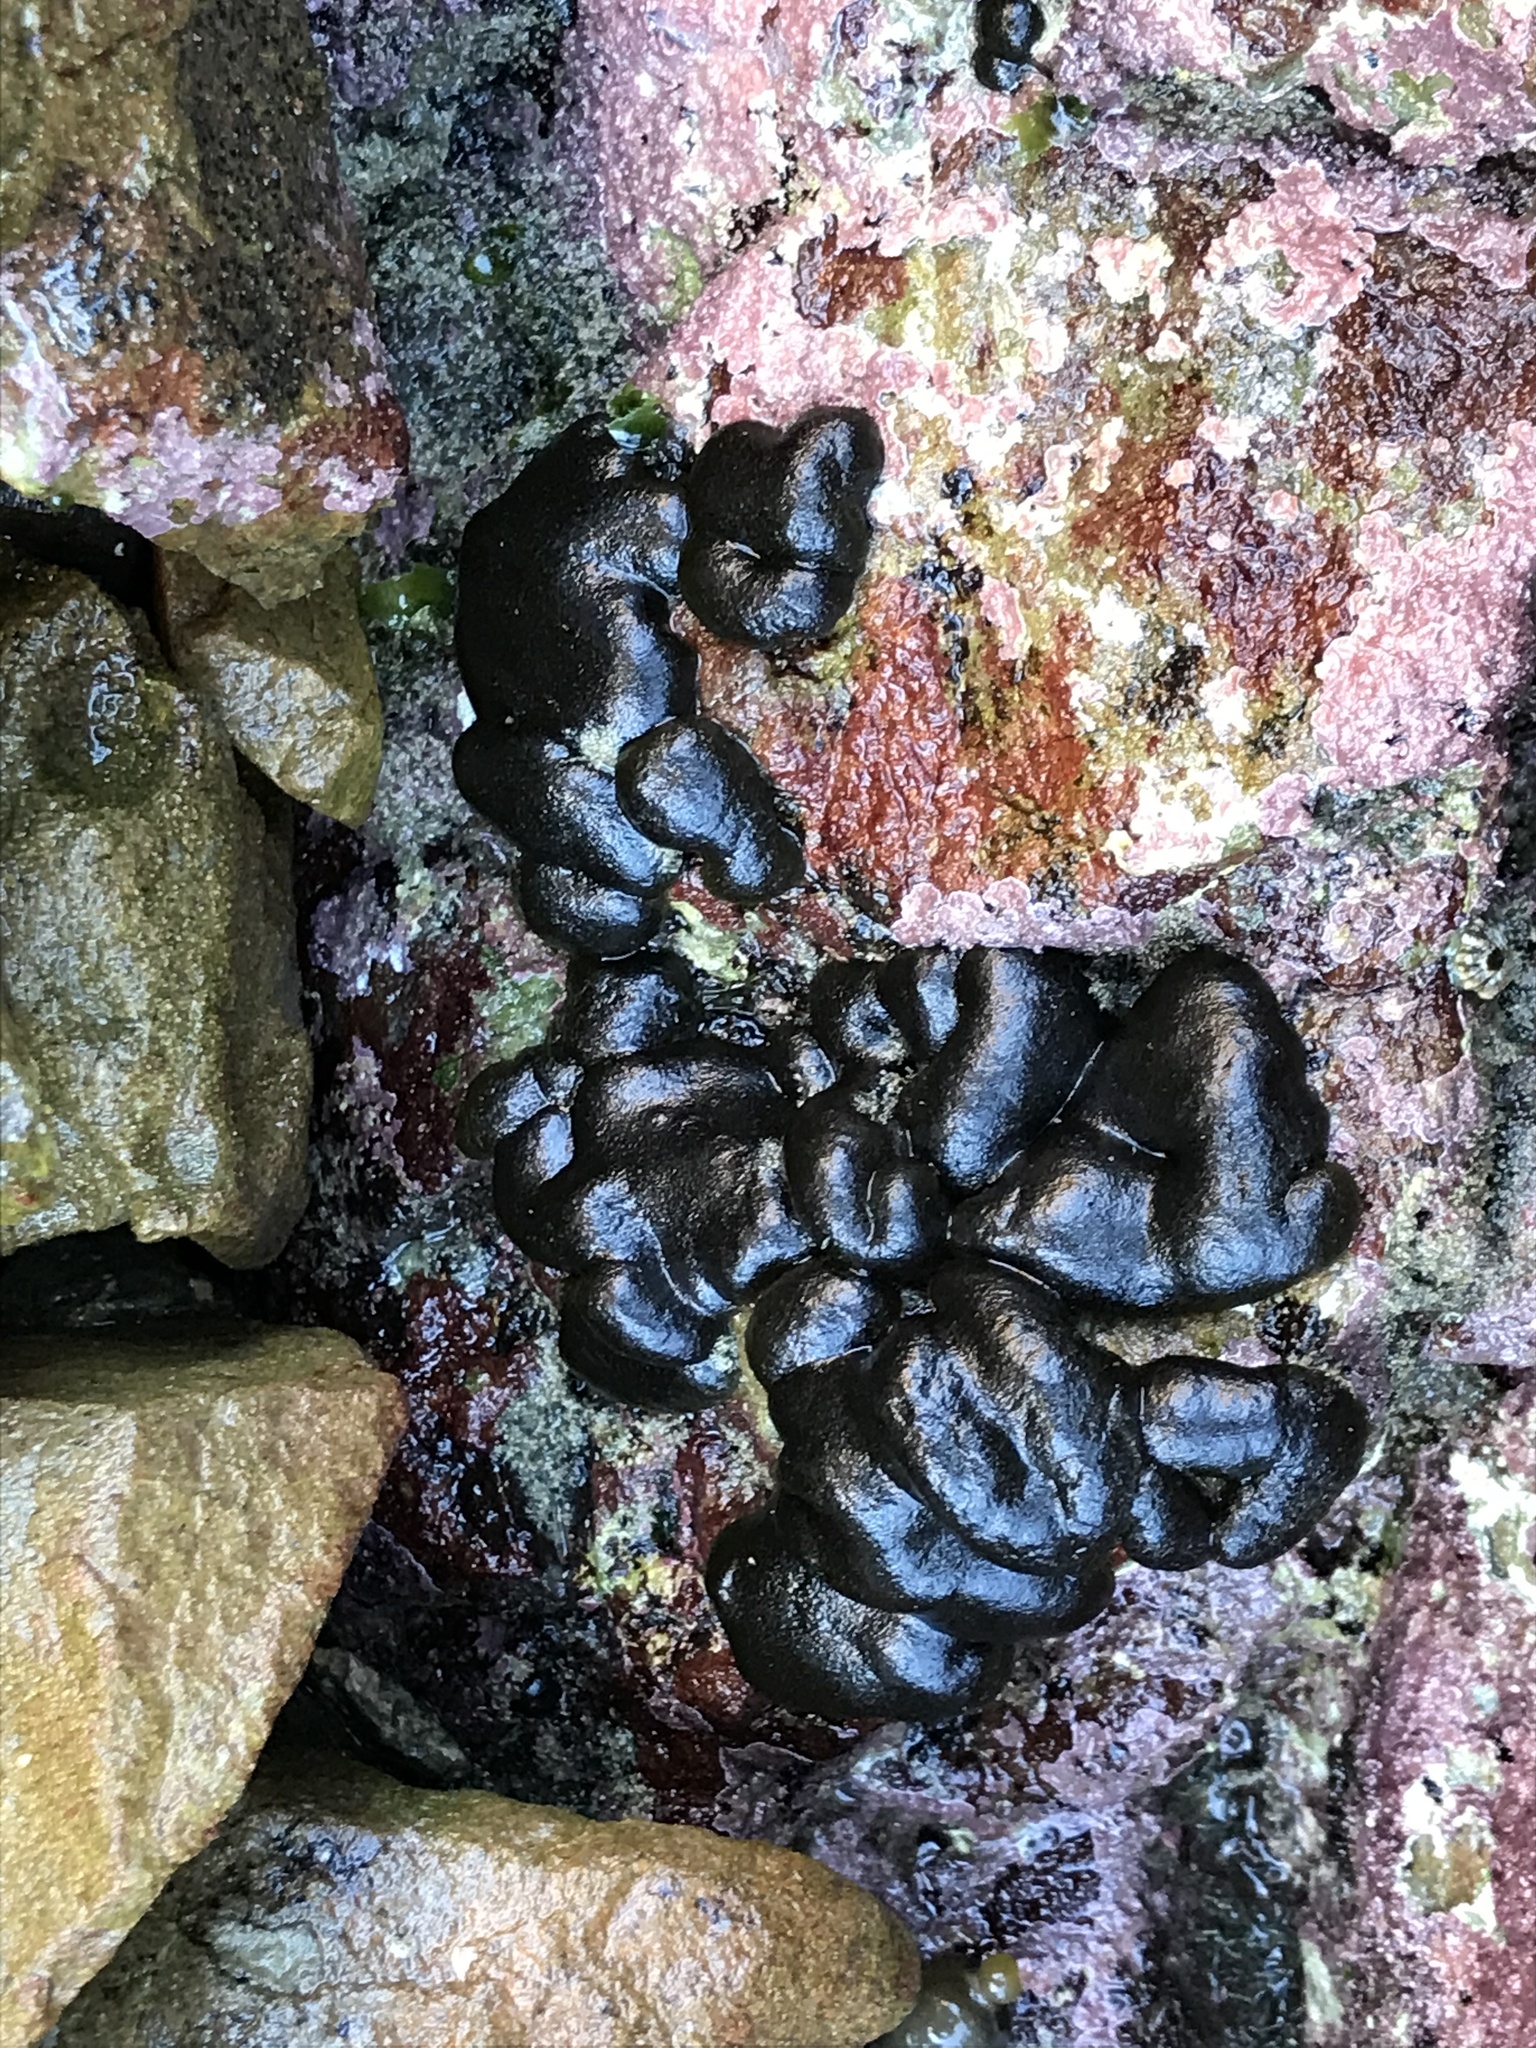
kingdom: Plantae
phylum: Chlorophyta
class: Ulvophyceae
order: Bryopsidales
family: Codiaceae
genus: Codium
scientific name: Codium convolutum
